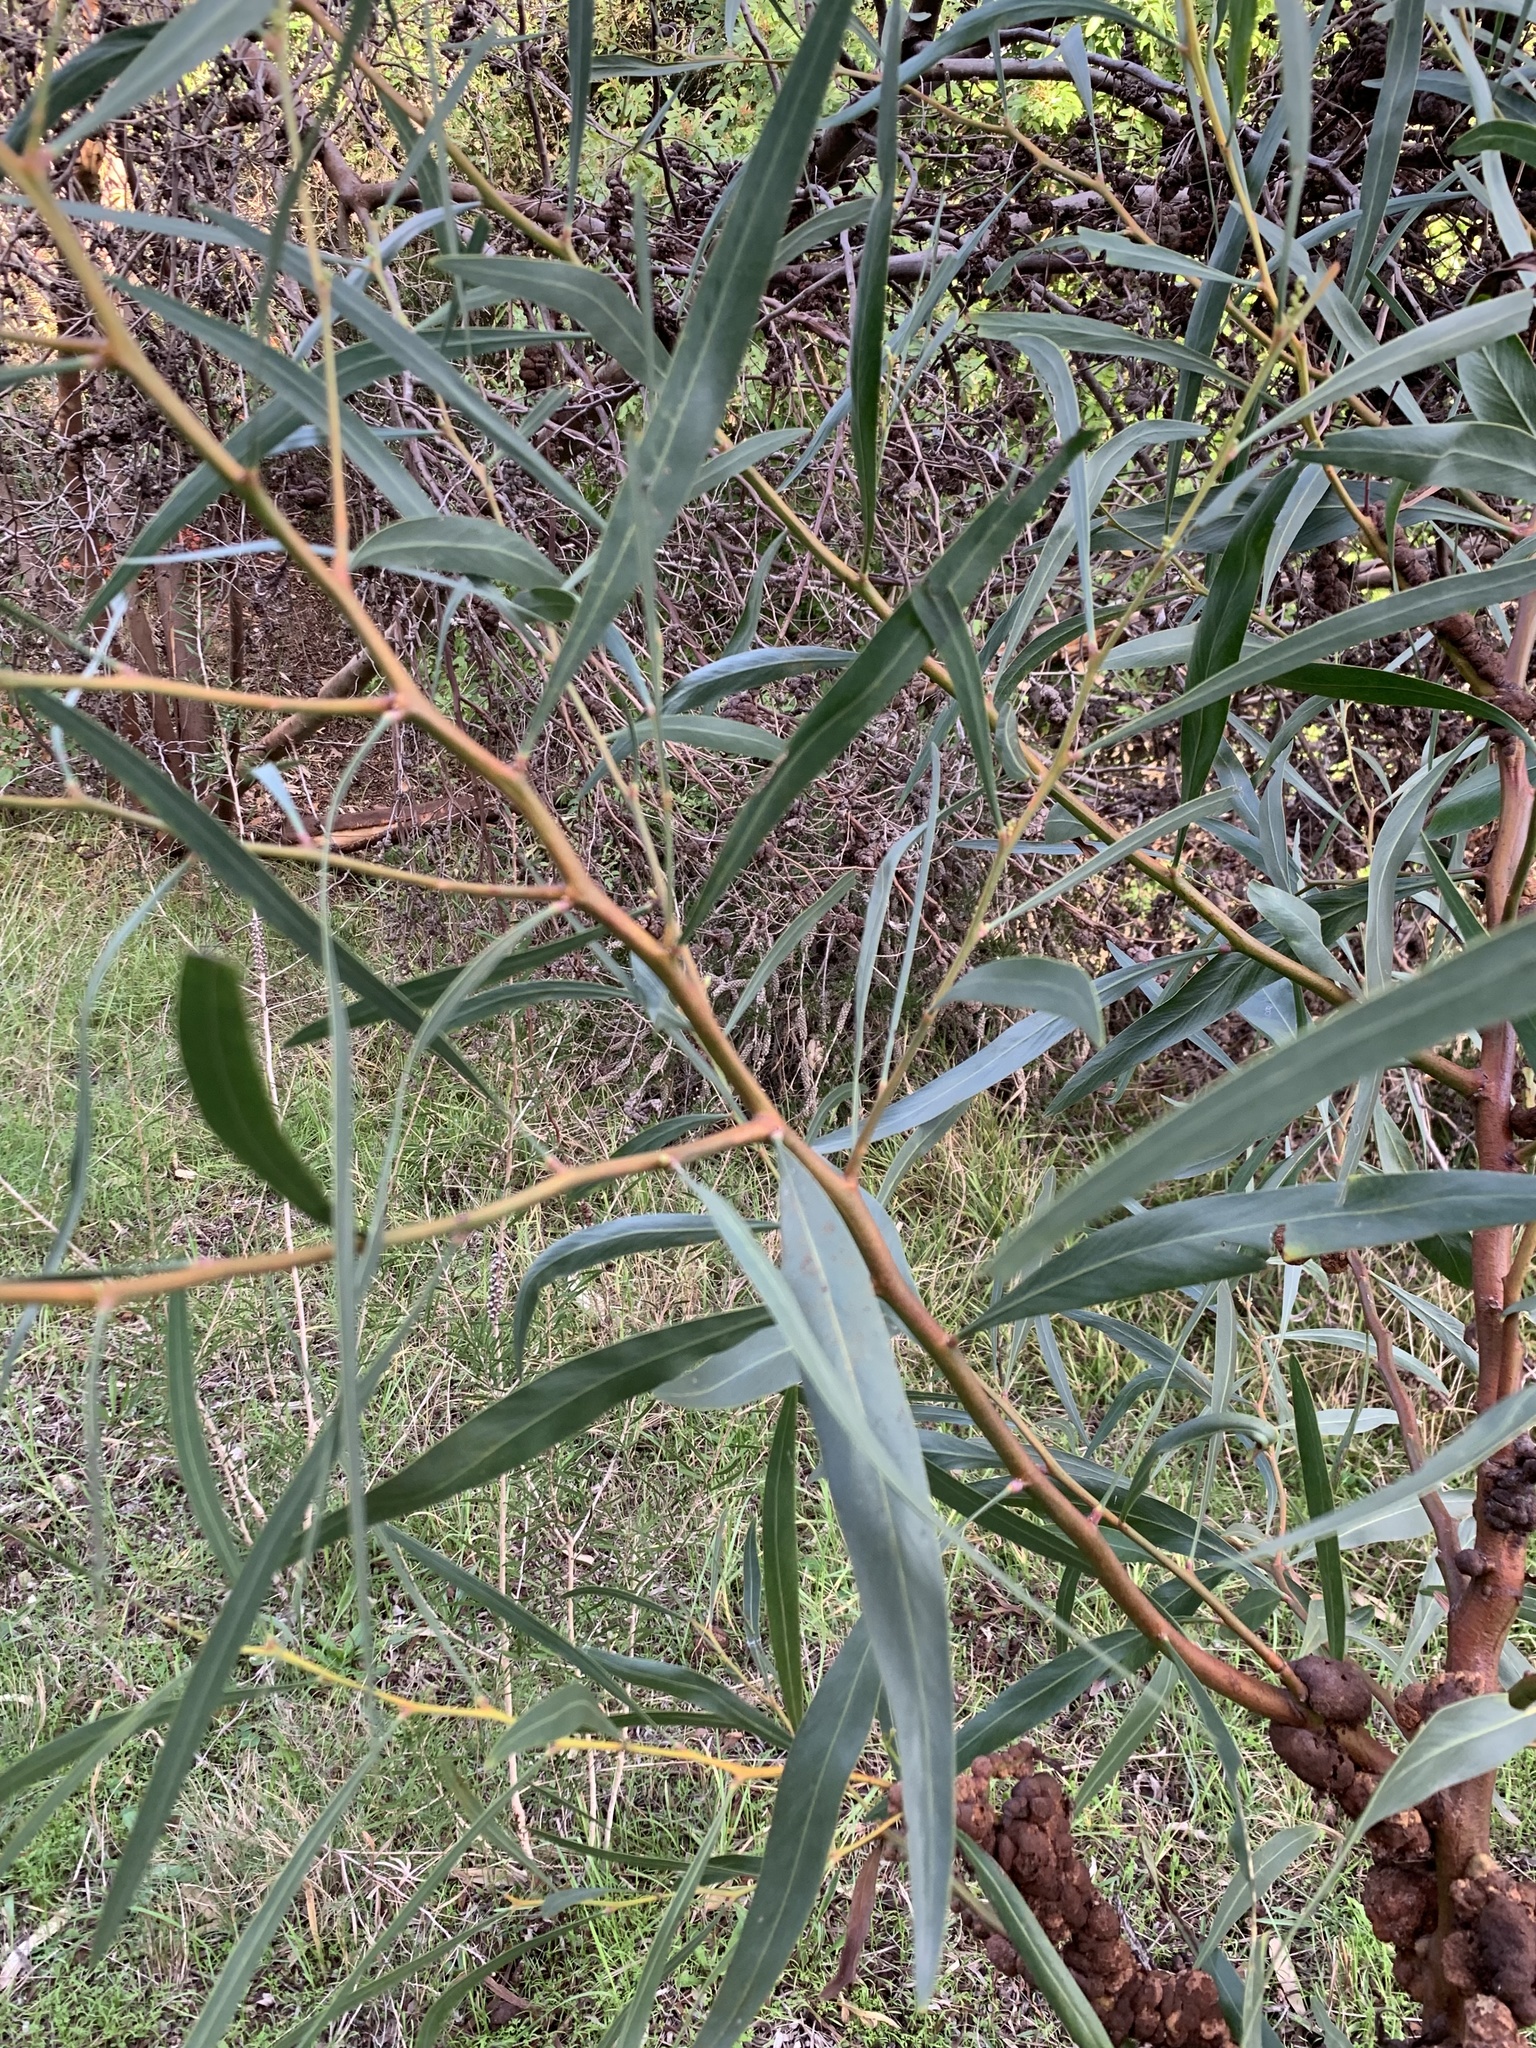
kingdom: Plantae
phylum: Tracheophyta
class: Magnoliopsida
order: Fabales
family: Fabaceae
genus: Acacia
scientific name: Acacia saligna
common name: Orange wattle
